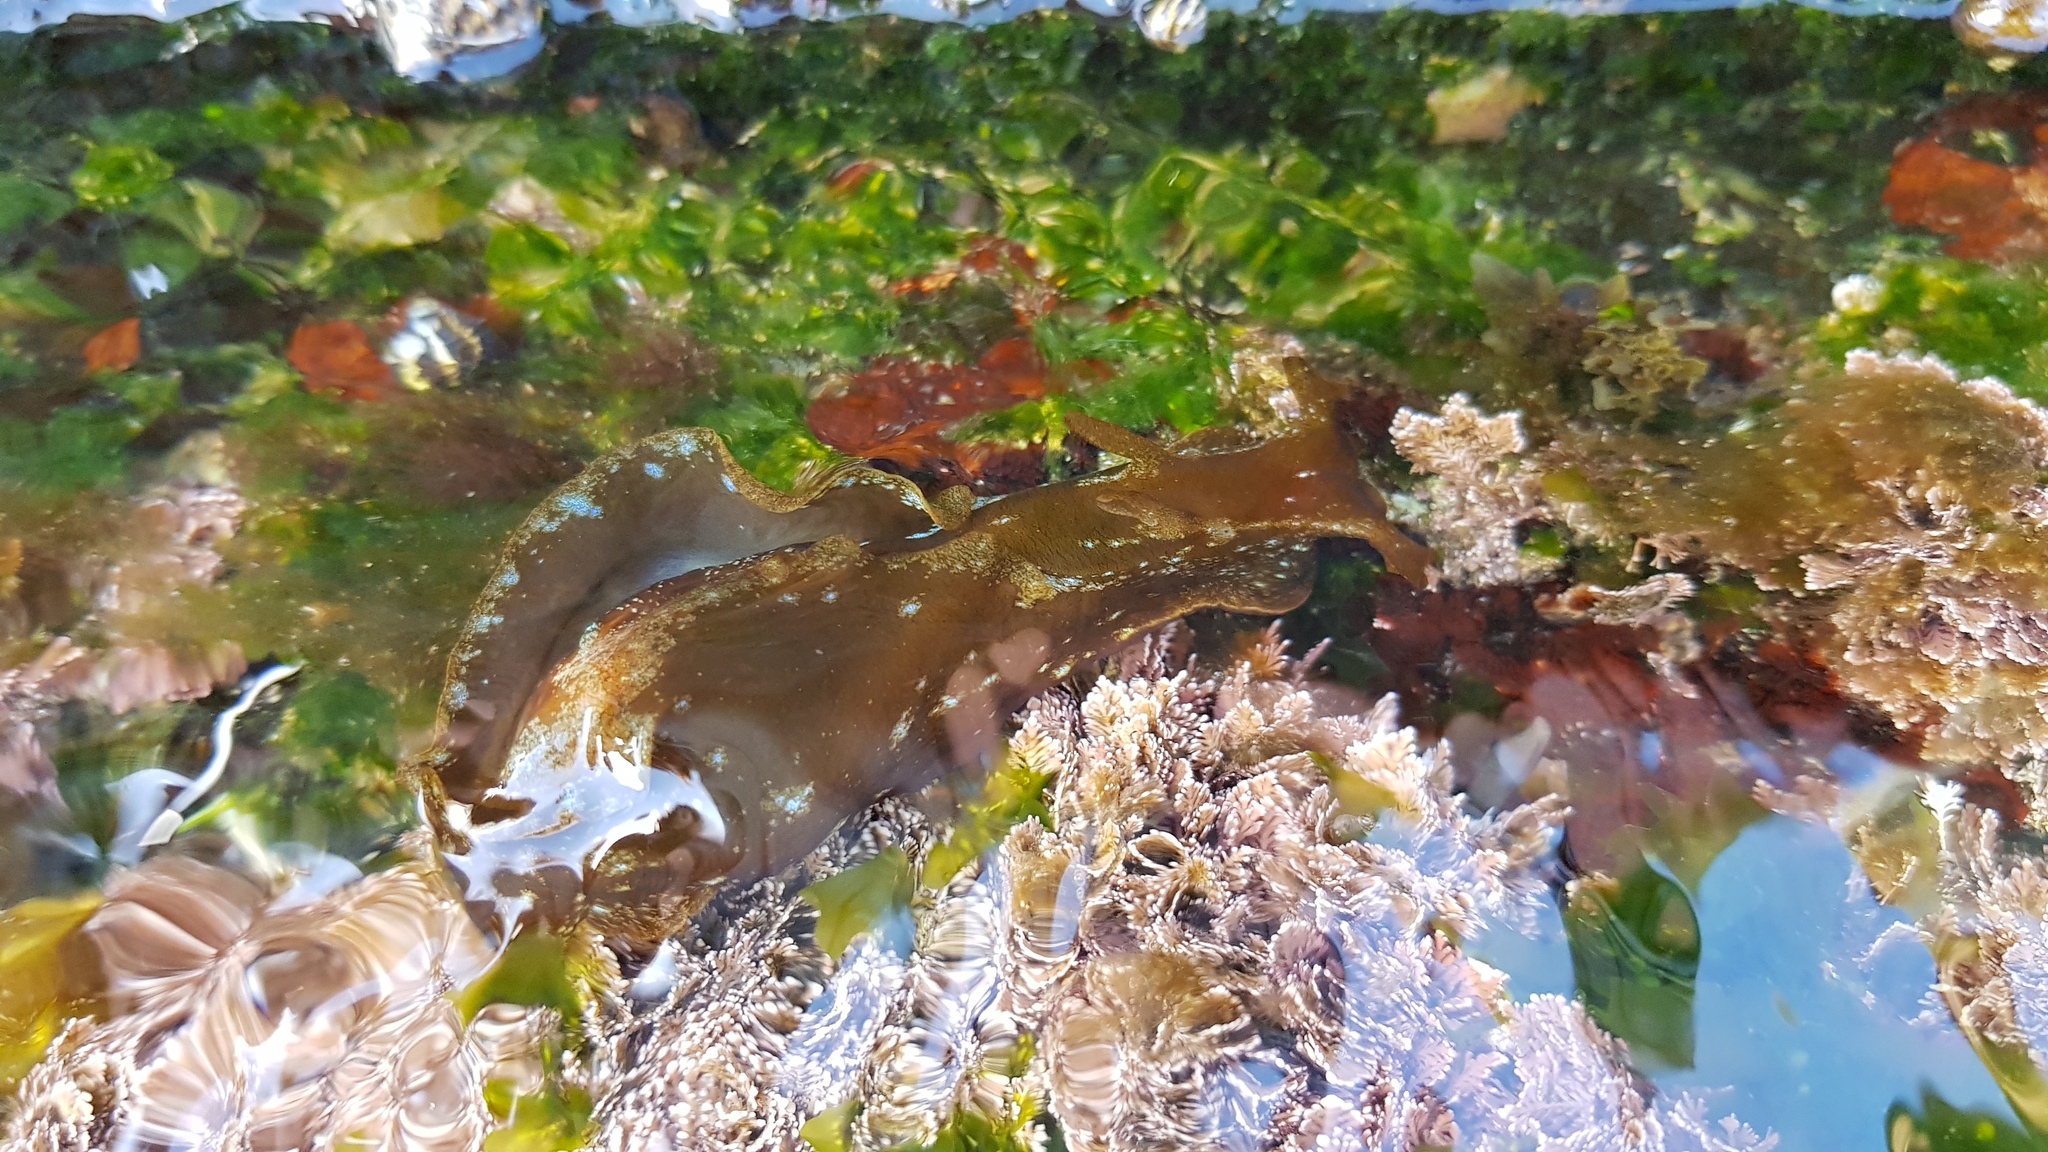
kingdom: Animalia
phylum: Mollusca
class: Gastropoda
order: Aplysiida
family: Aplysiidae
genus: Aplysia
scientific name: Aplysia juliana
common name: Walking sea hare
